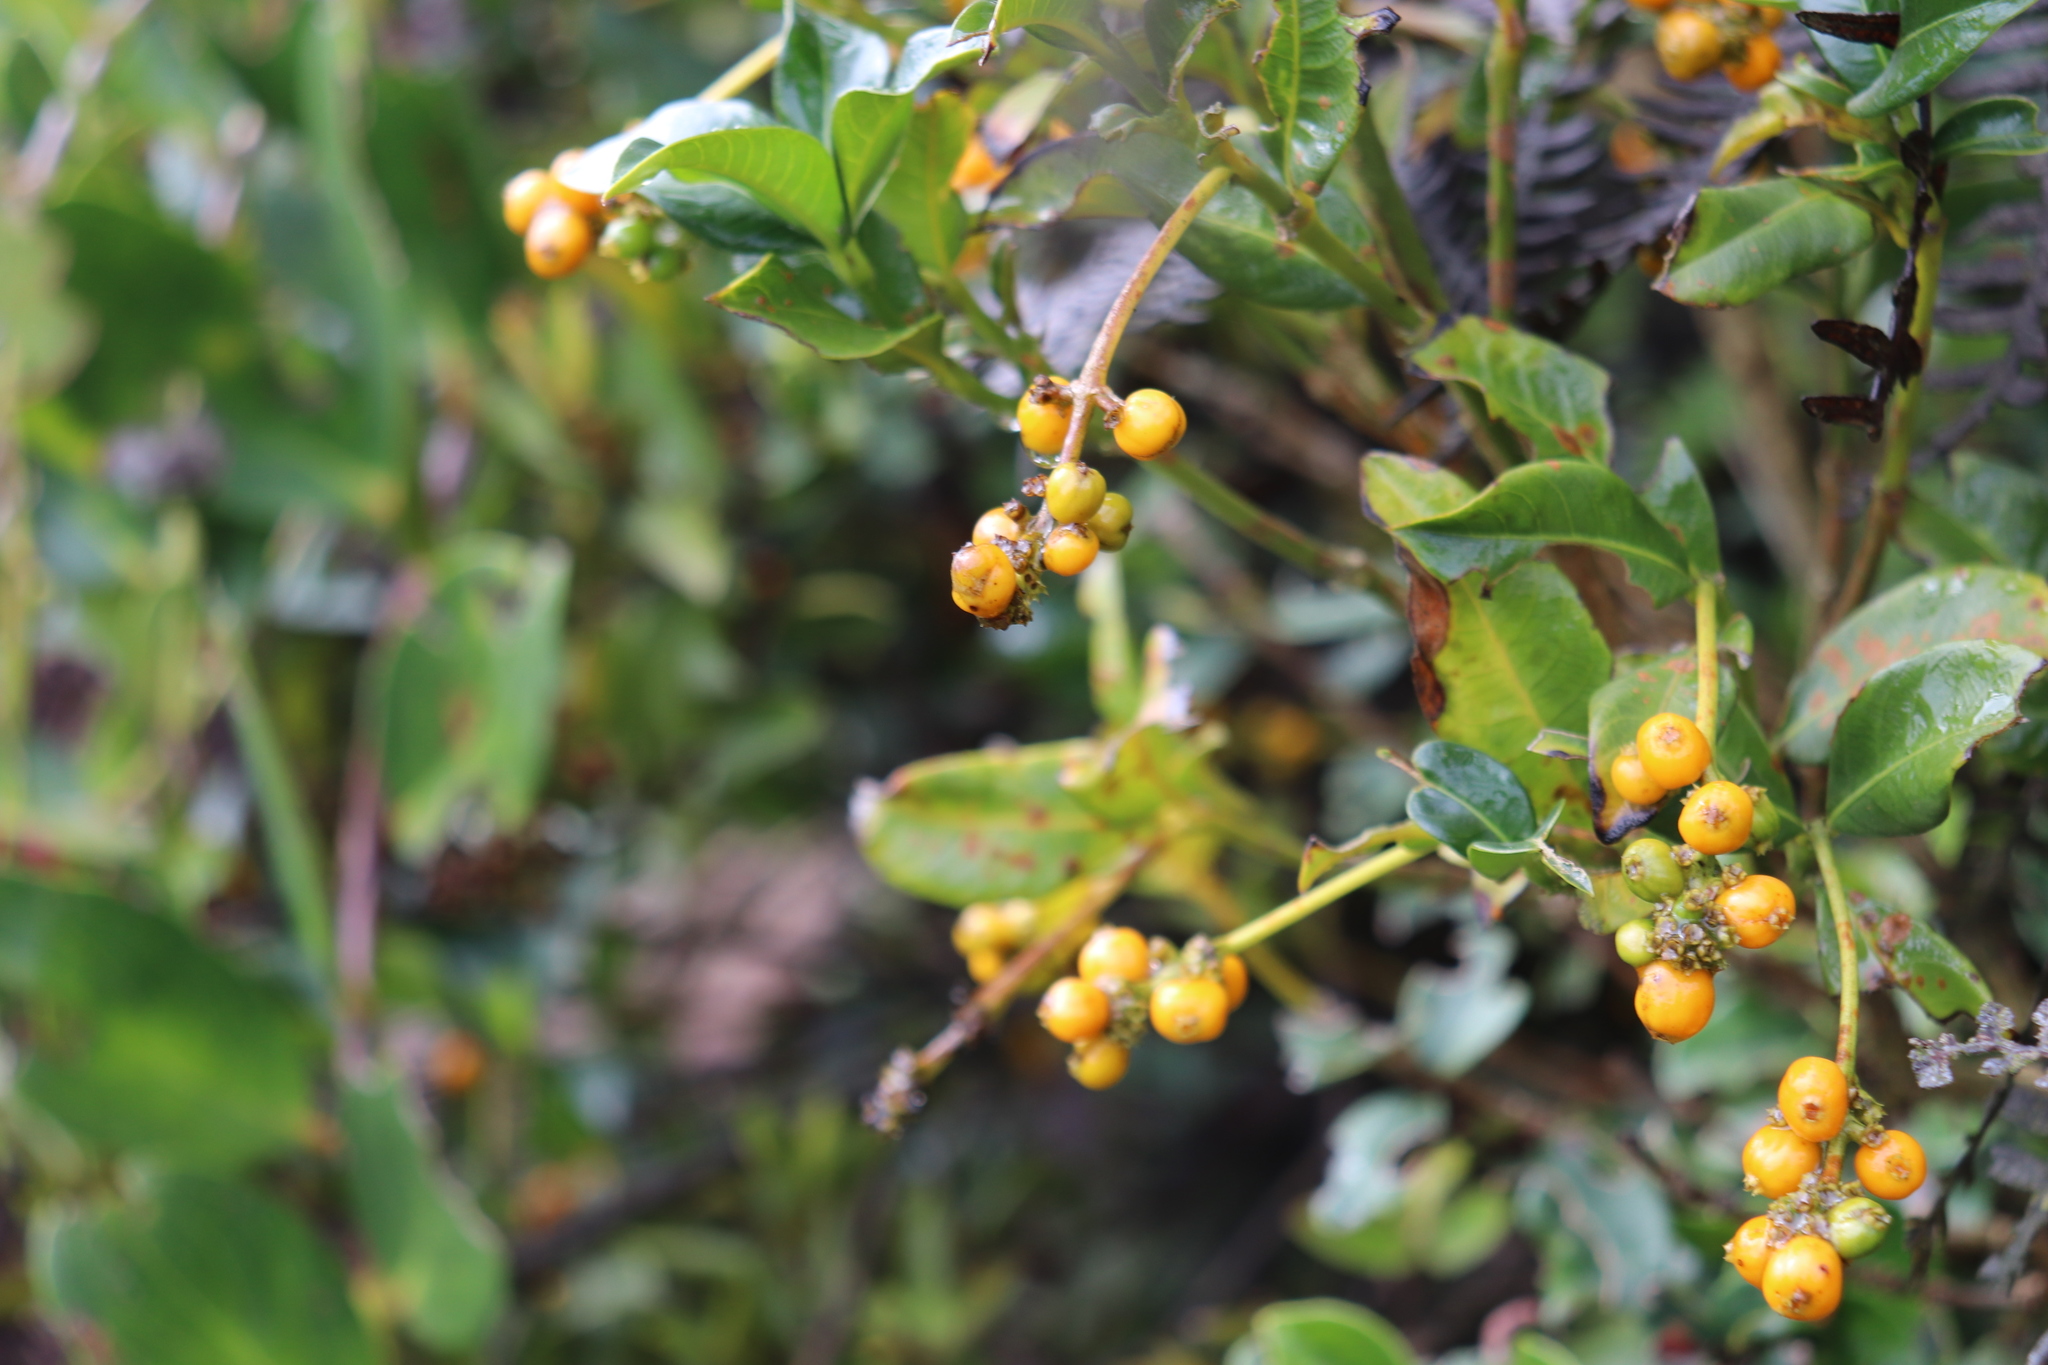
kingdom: Plantae
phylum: Tracheophyta
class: Magnoliopsida
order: Gentianales
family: Rubiaceae
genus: Palicourea
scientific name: Palicourea boqueronensis
